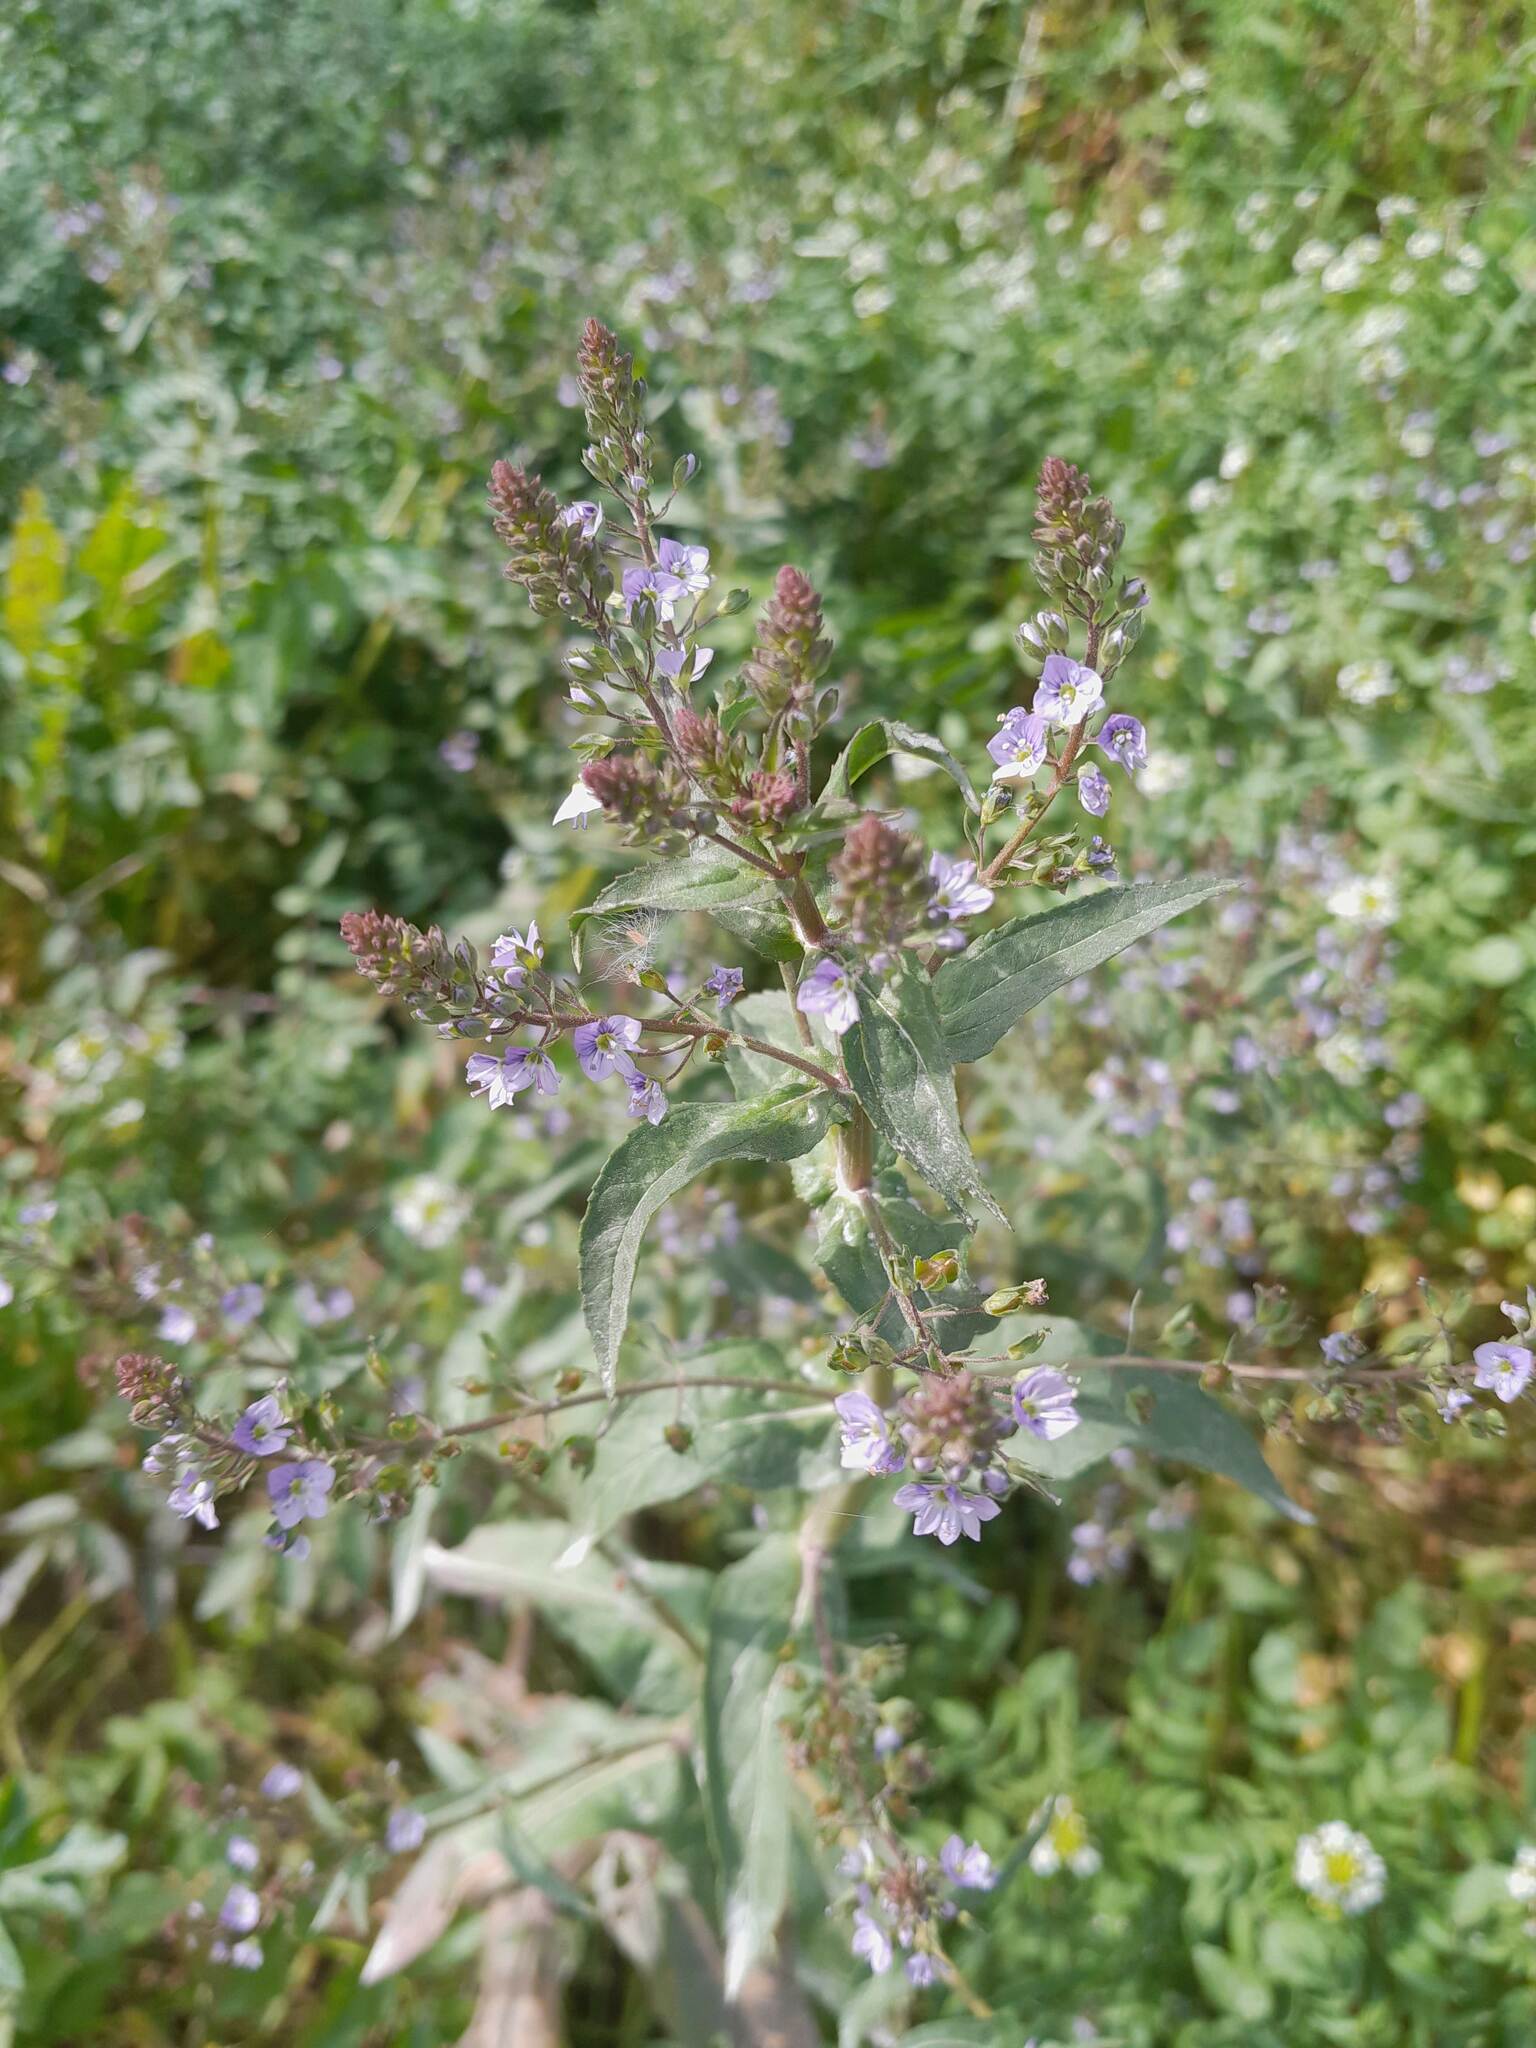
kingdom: Plantae
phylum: Tracheophyta
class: Magnoliopsida
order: Lamiales
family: Plantaginaceae
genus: Veronica
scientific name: Veronica anagallis-aquatica
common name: Water speedwell
